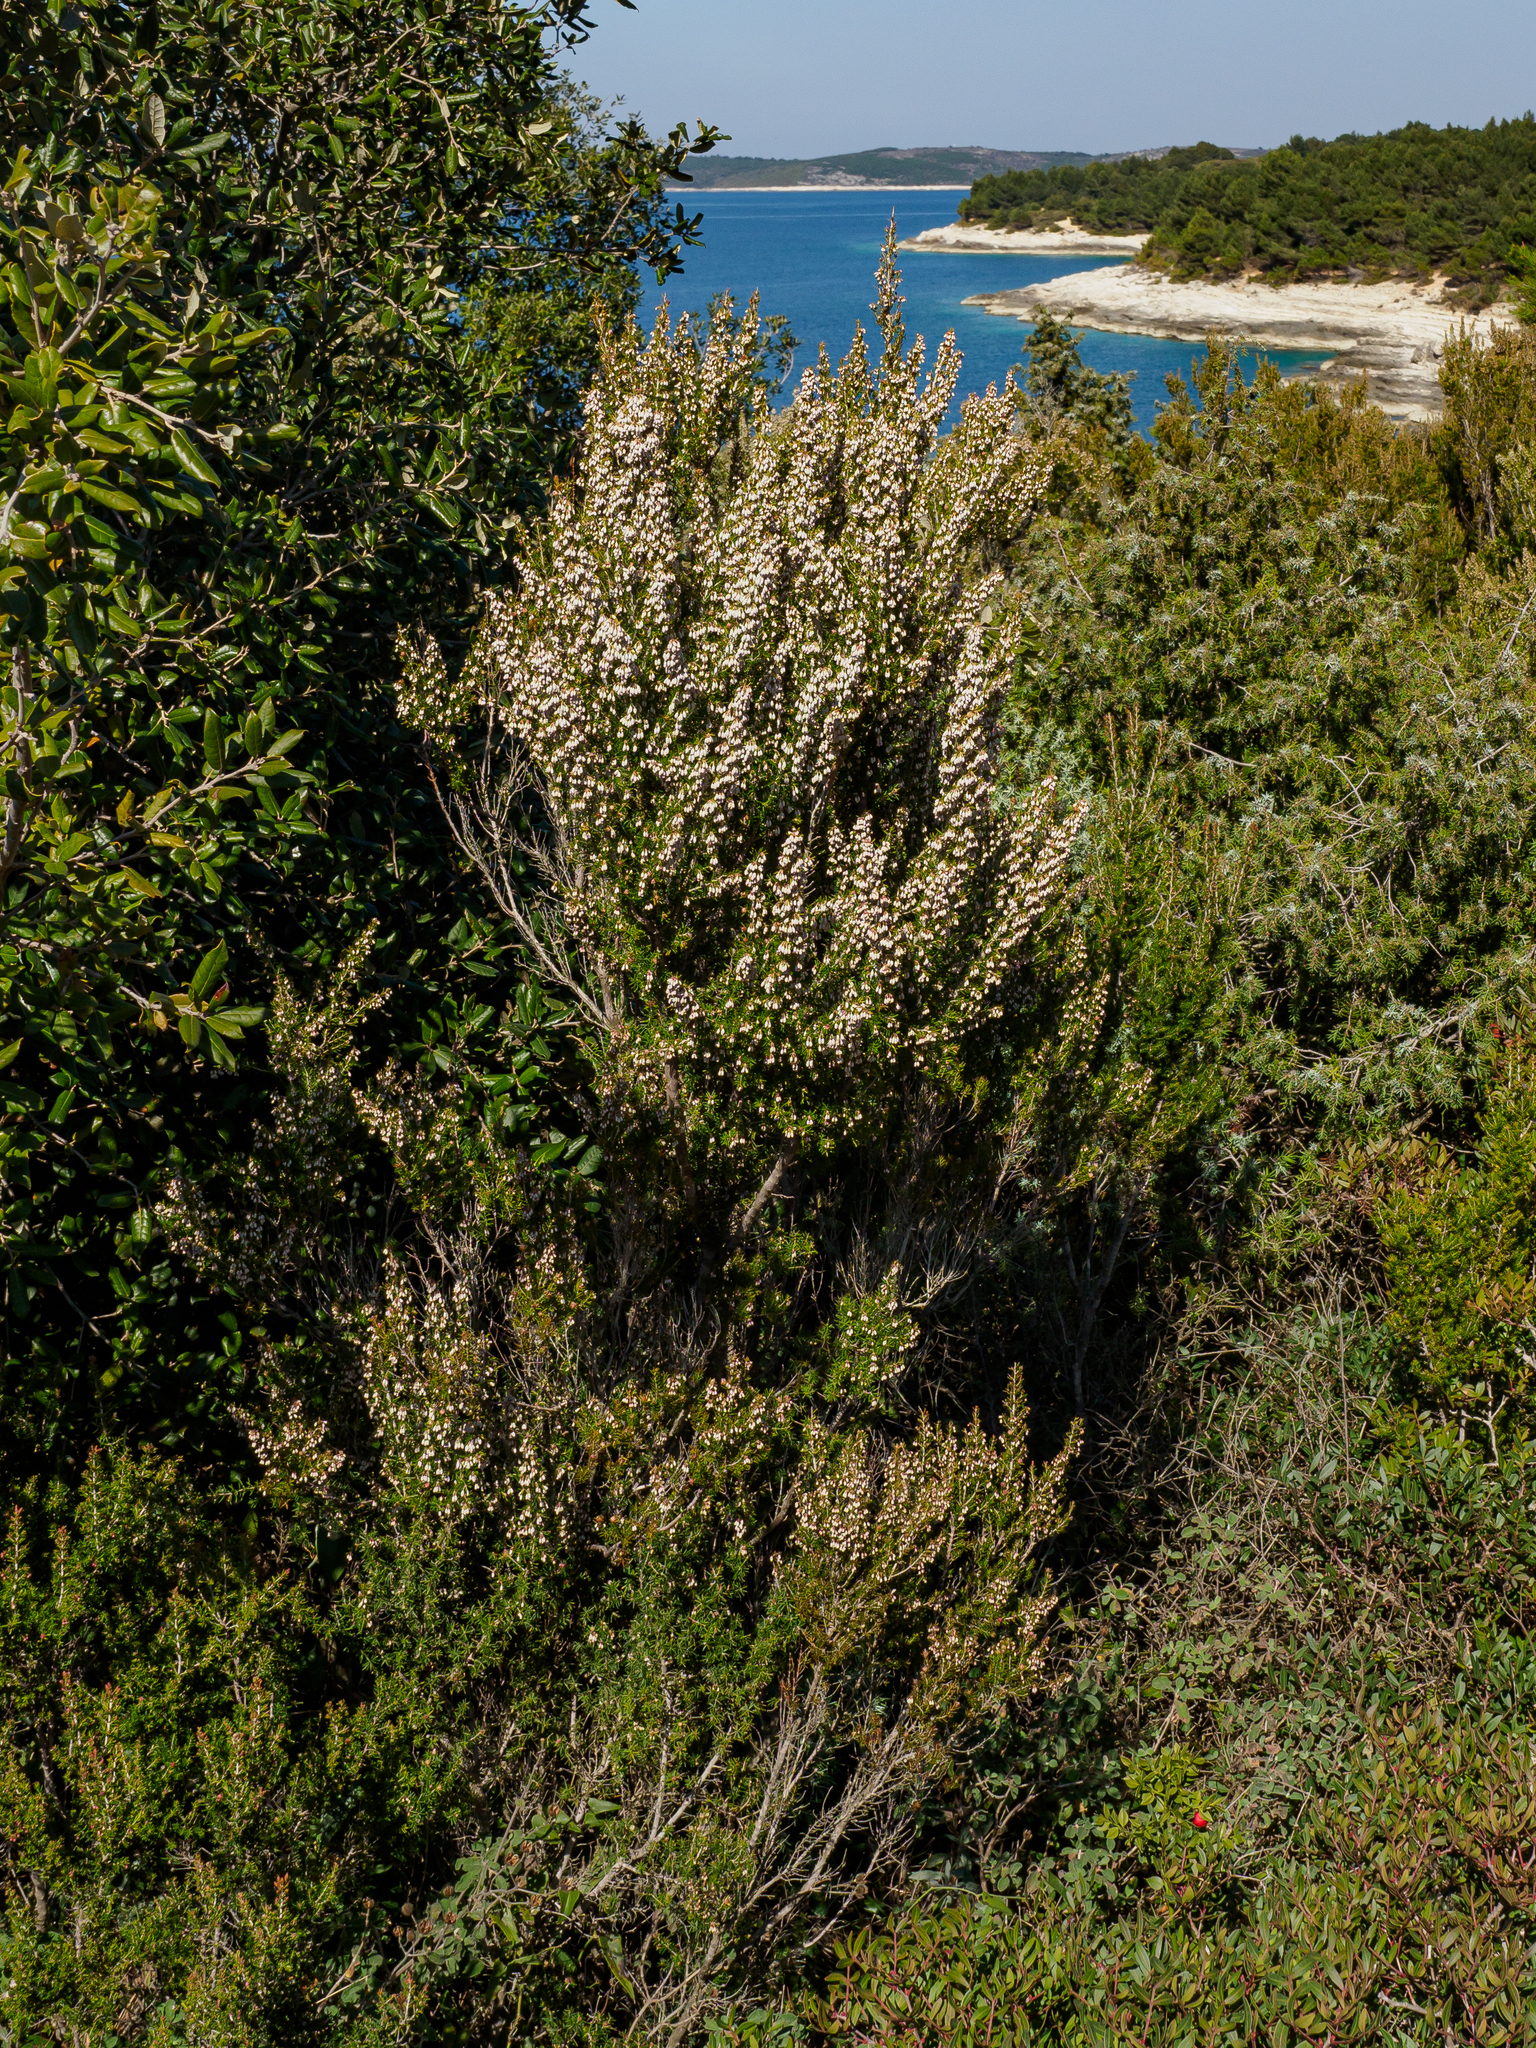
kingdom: Plantae
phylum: Tracheophyta
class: Magnoliopsida
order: Ericales
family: Ericaceae
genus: Erica
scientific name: Erica arborea
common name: Tree heath
